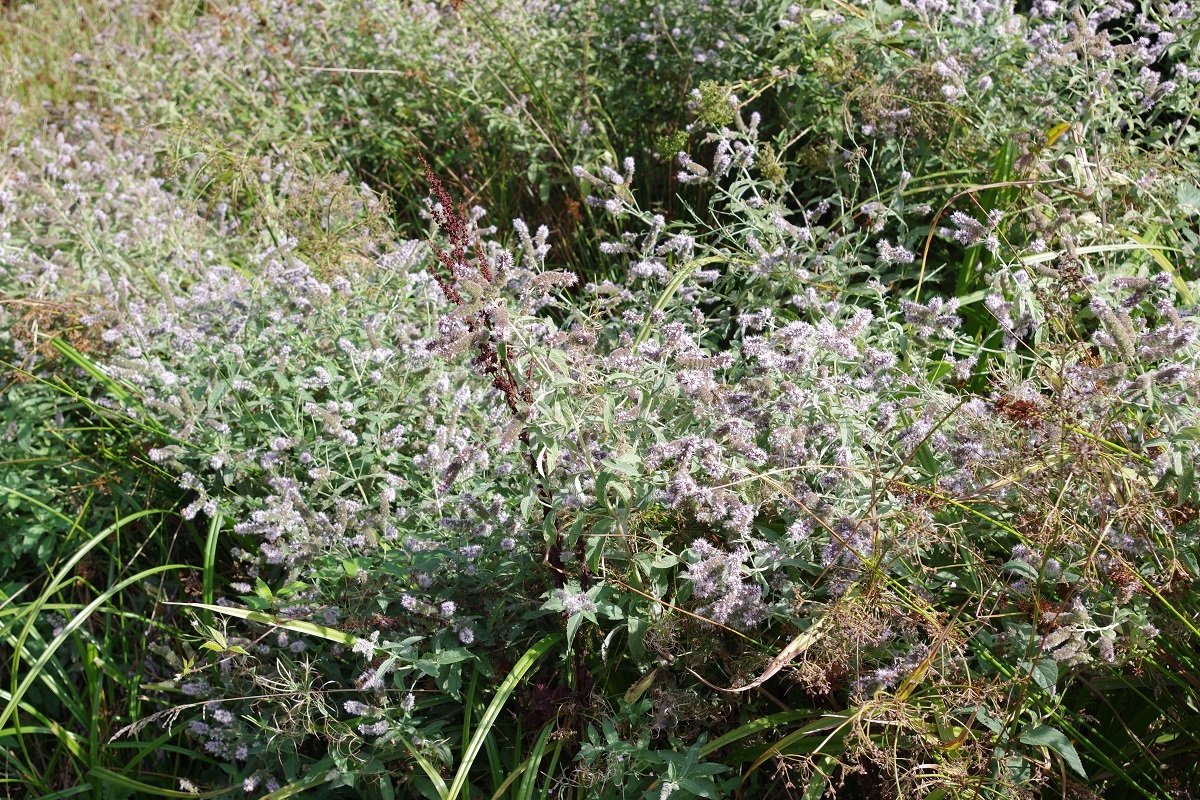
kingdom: Plantae
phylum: Tracheophyta
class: Magnoliopsida
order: Lamiales
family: Lamiaceae
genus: Mentha
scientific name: Mentha longifolia
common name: Horse mint
